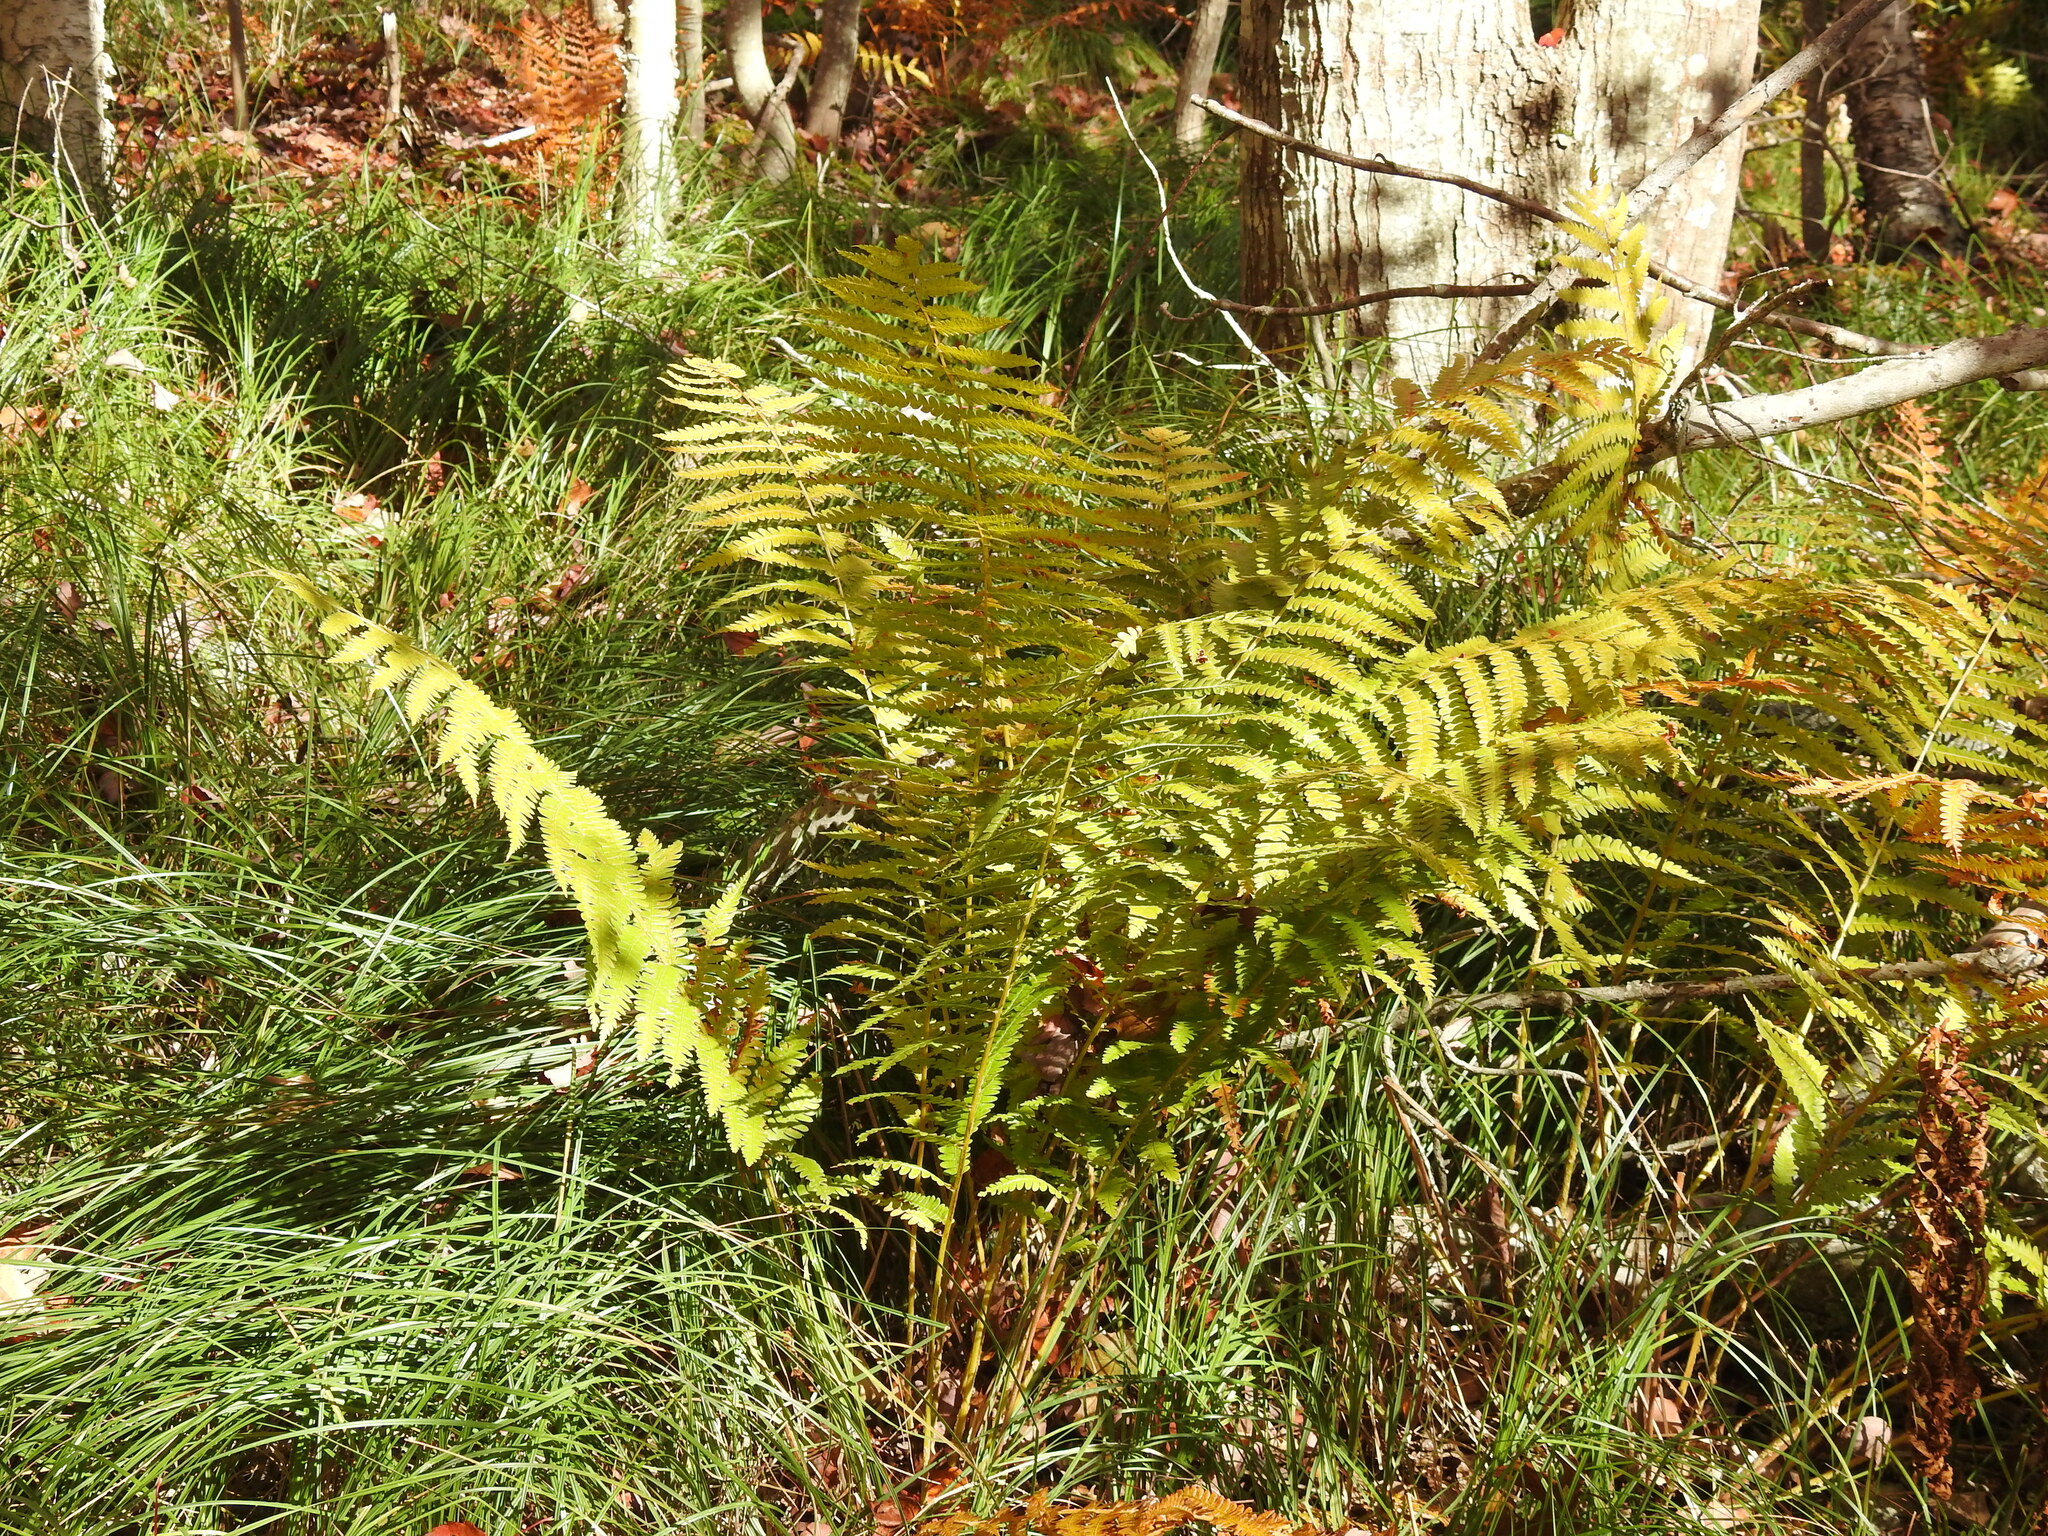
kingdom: Plantae
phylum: Tracheophyta
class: Polypodiopsida
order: Osmundales
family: Osmundaceae
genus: Osmundastrum
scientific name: Osmundastrum cinnamomeum
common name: Cinnamon fern
